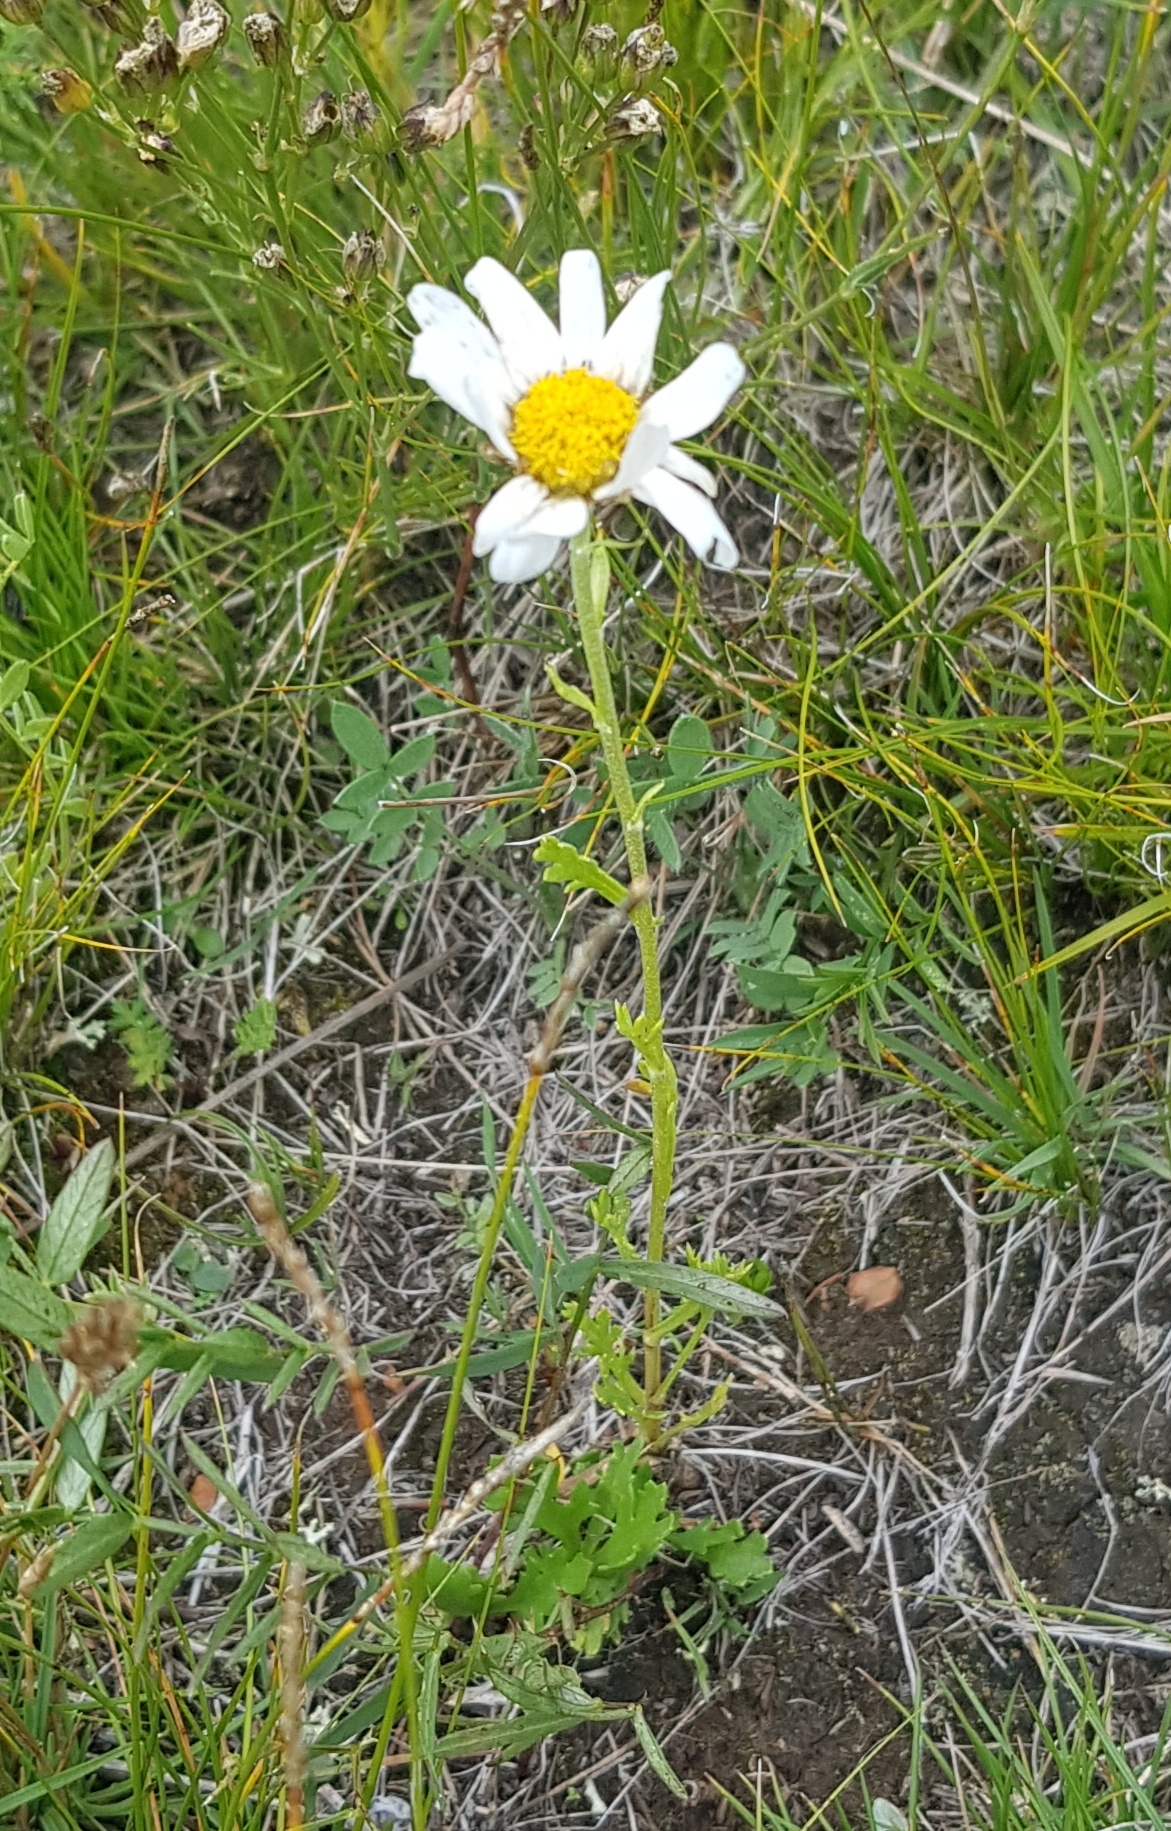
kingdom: Plantae
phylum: Tracheophyta
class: Magnoliopsida
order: Asterales
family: Asteraceae
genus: Chrysanthemum
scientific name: Chrysanthemum zawadzkii
